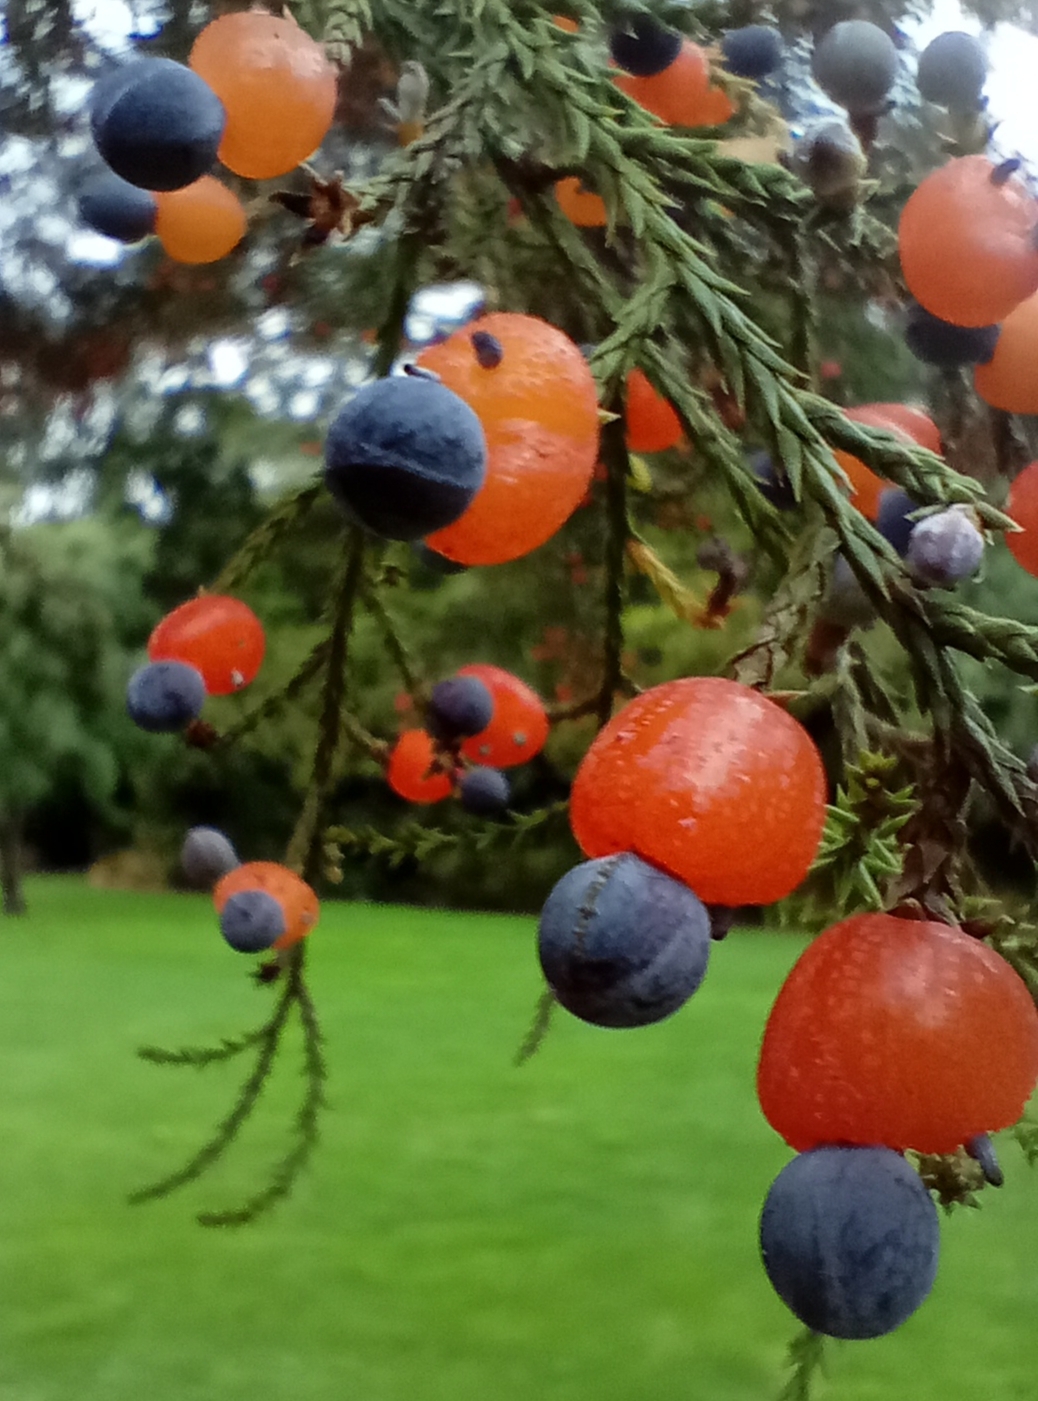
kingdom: Plantae
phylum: Tracheophyta
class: Pinopsida
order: Pinales
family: Podocarpaceae
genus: Dacrycarpus
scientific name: Dacrycarpus dacrydioides
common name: White pine
